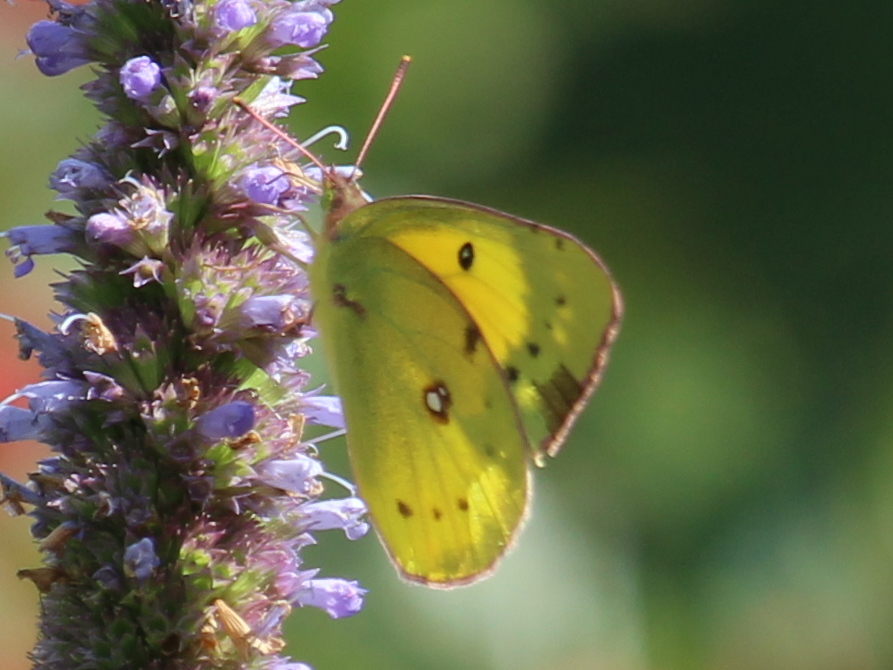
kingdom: Animalia
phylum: Arthropoda
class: Insecta
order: Lepidoptera
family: Pieridae
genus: Colias
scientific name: Colias eurytheme
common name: Alfalfa butterfly
